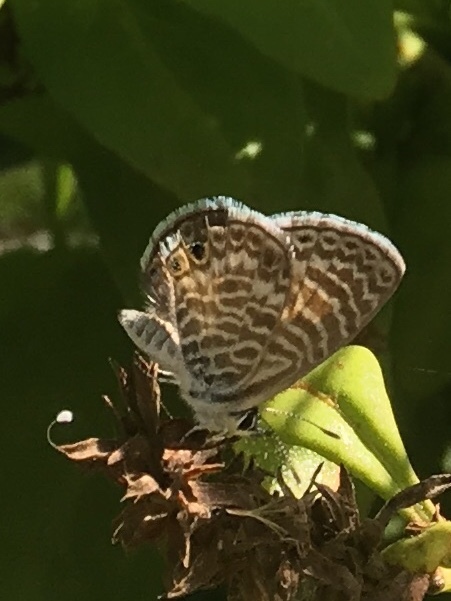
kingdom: Animalia
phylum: Arthropoda
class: Insecta
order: Lepidoptera
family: Lycaenidae
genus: Leptotes
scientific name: Leptotes marina
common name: Marine blue
